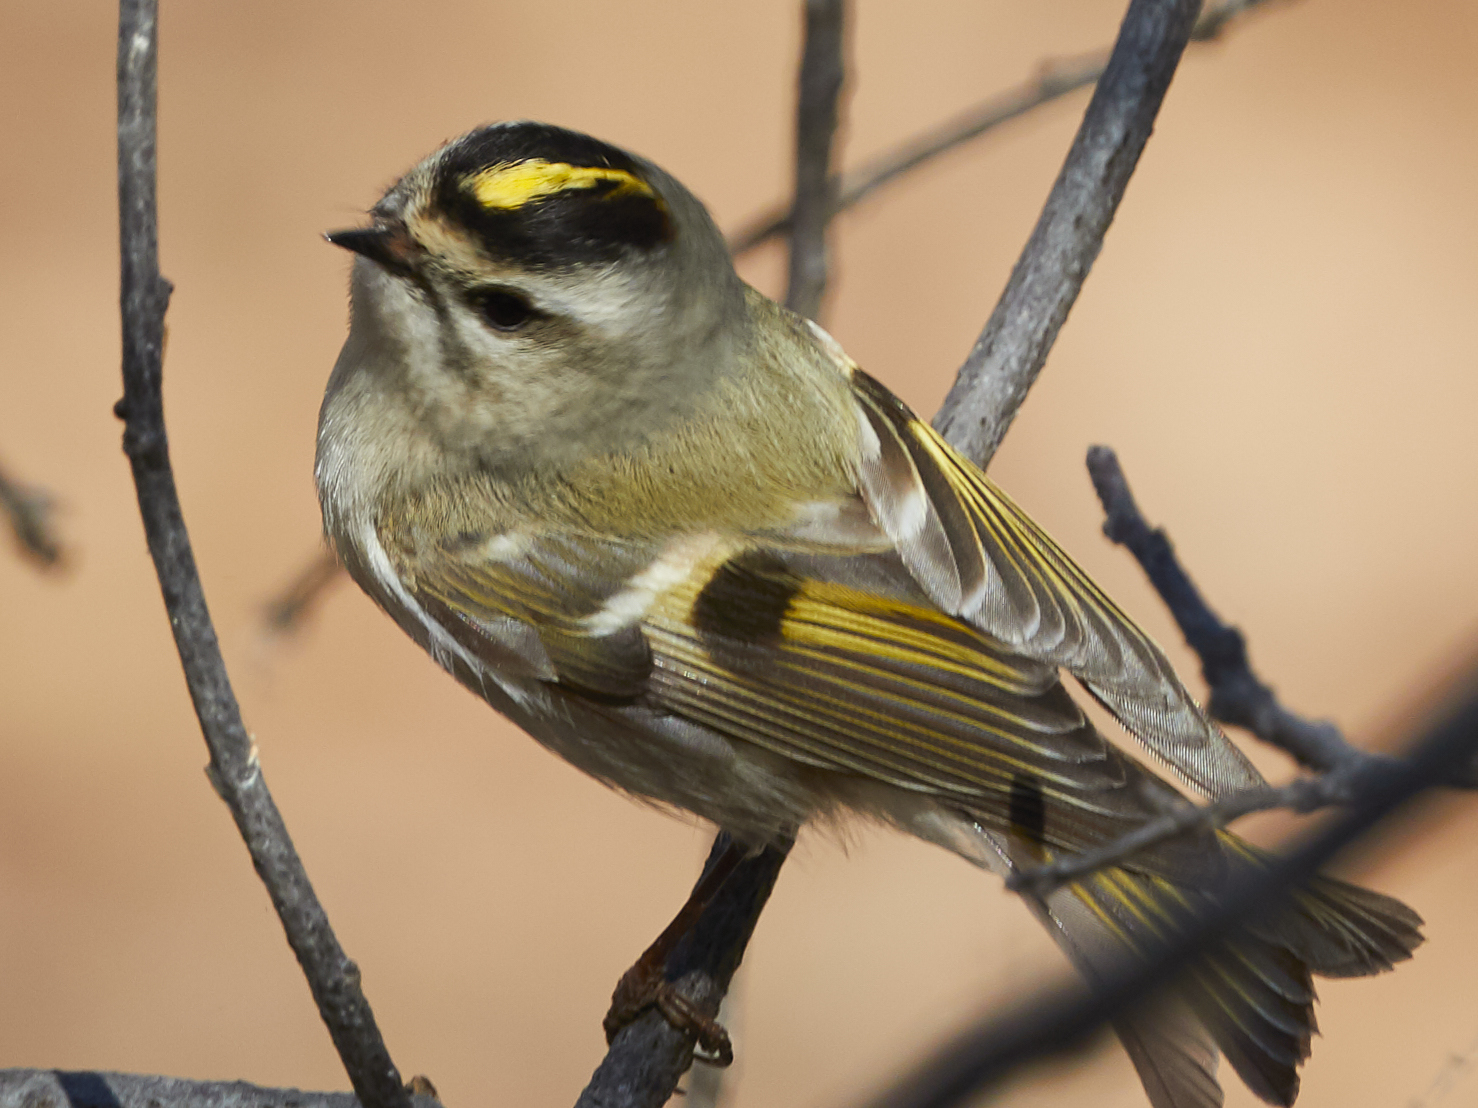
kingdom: Animalia
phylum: Chordata
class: Aves
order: Passeriformes
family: Regulidae
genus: Regulus
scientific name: Regulus satrapa
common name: Golden-crowned kinglet
